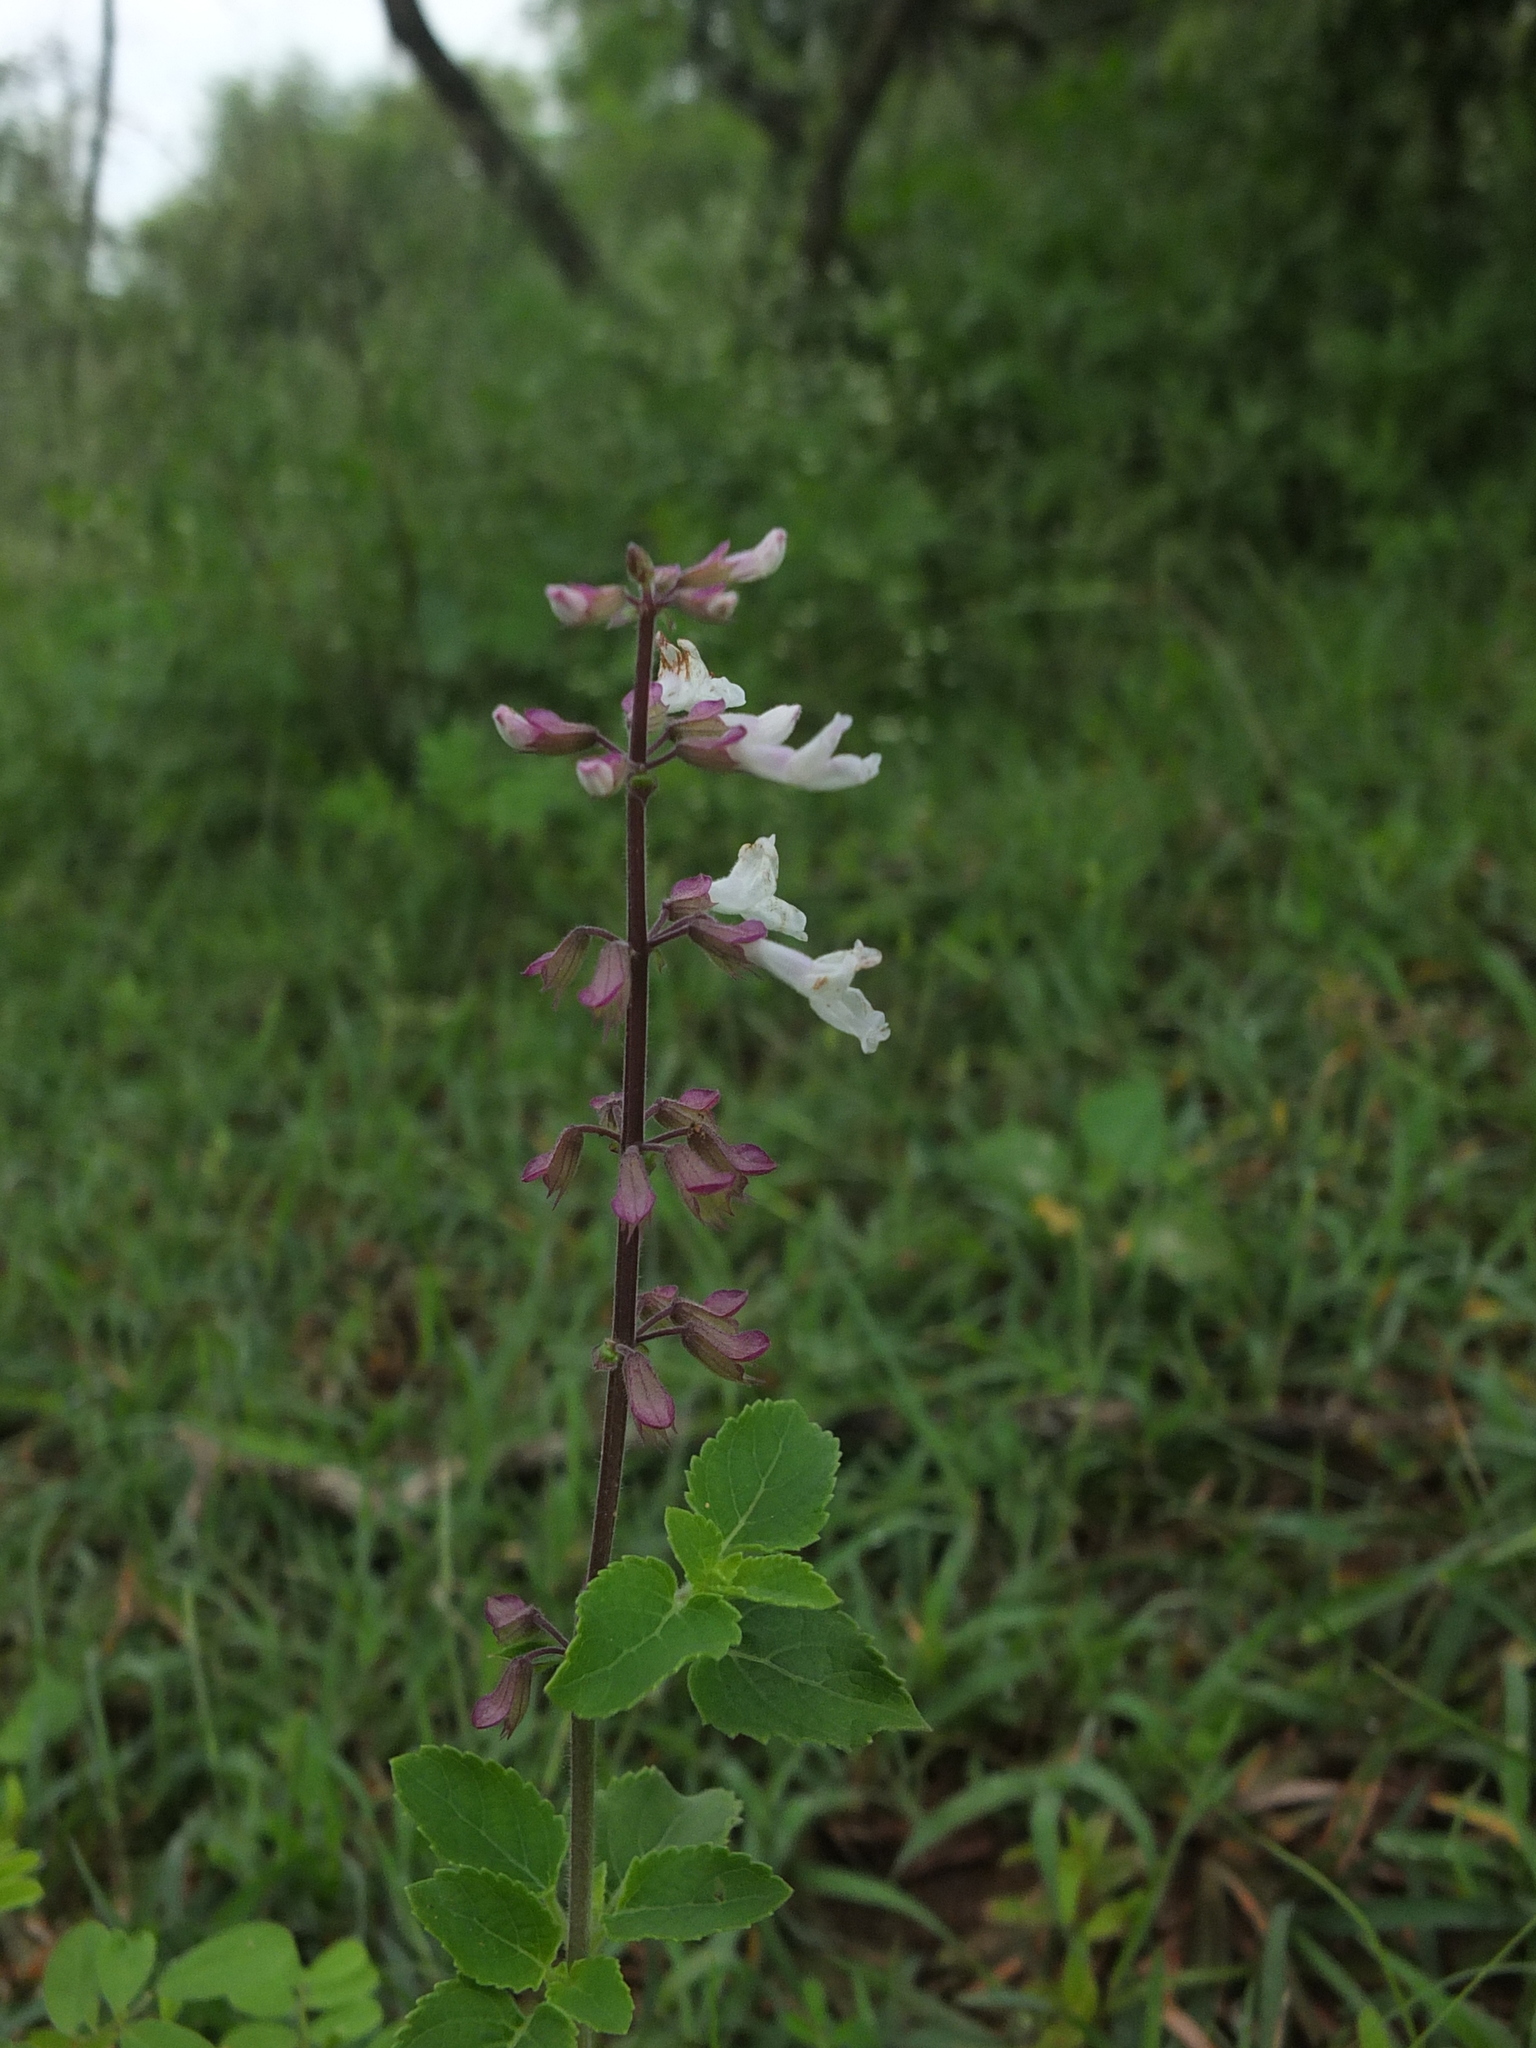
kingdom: Plantae
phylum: Tracheophyta
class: Magnoliopsida
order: Lamiales
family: Lamiaceae
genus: Orthosiphon
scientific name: Orthosiphon thymiflorus
